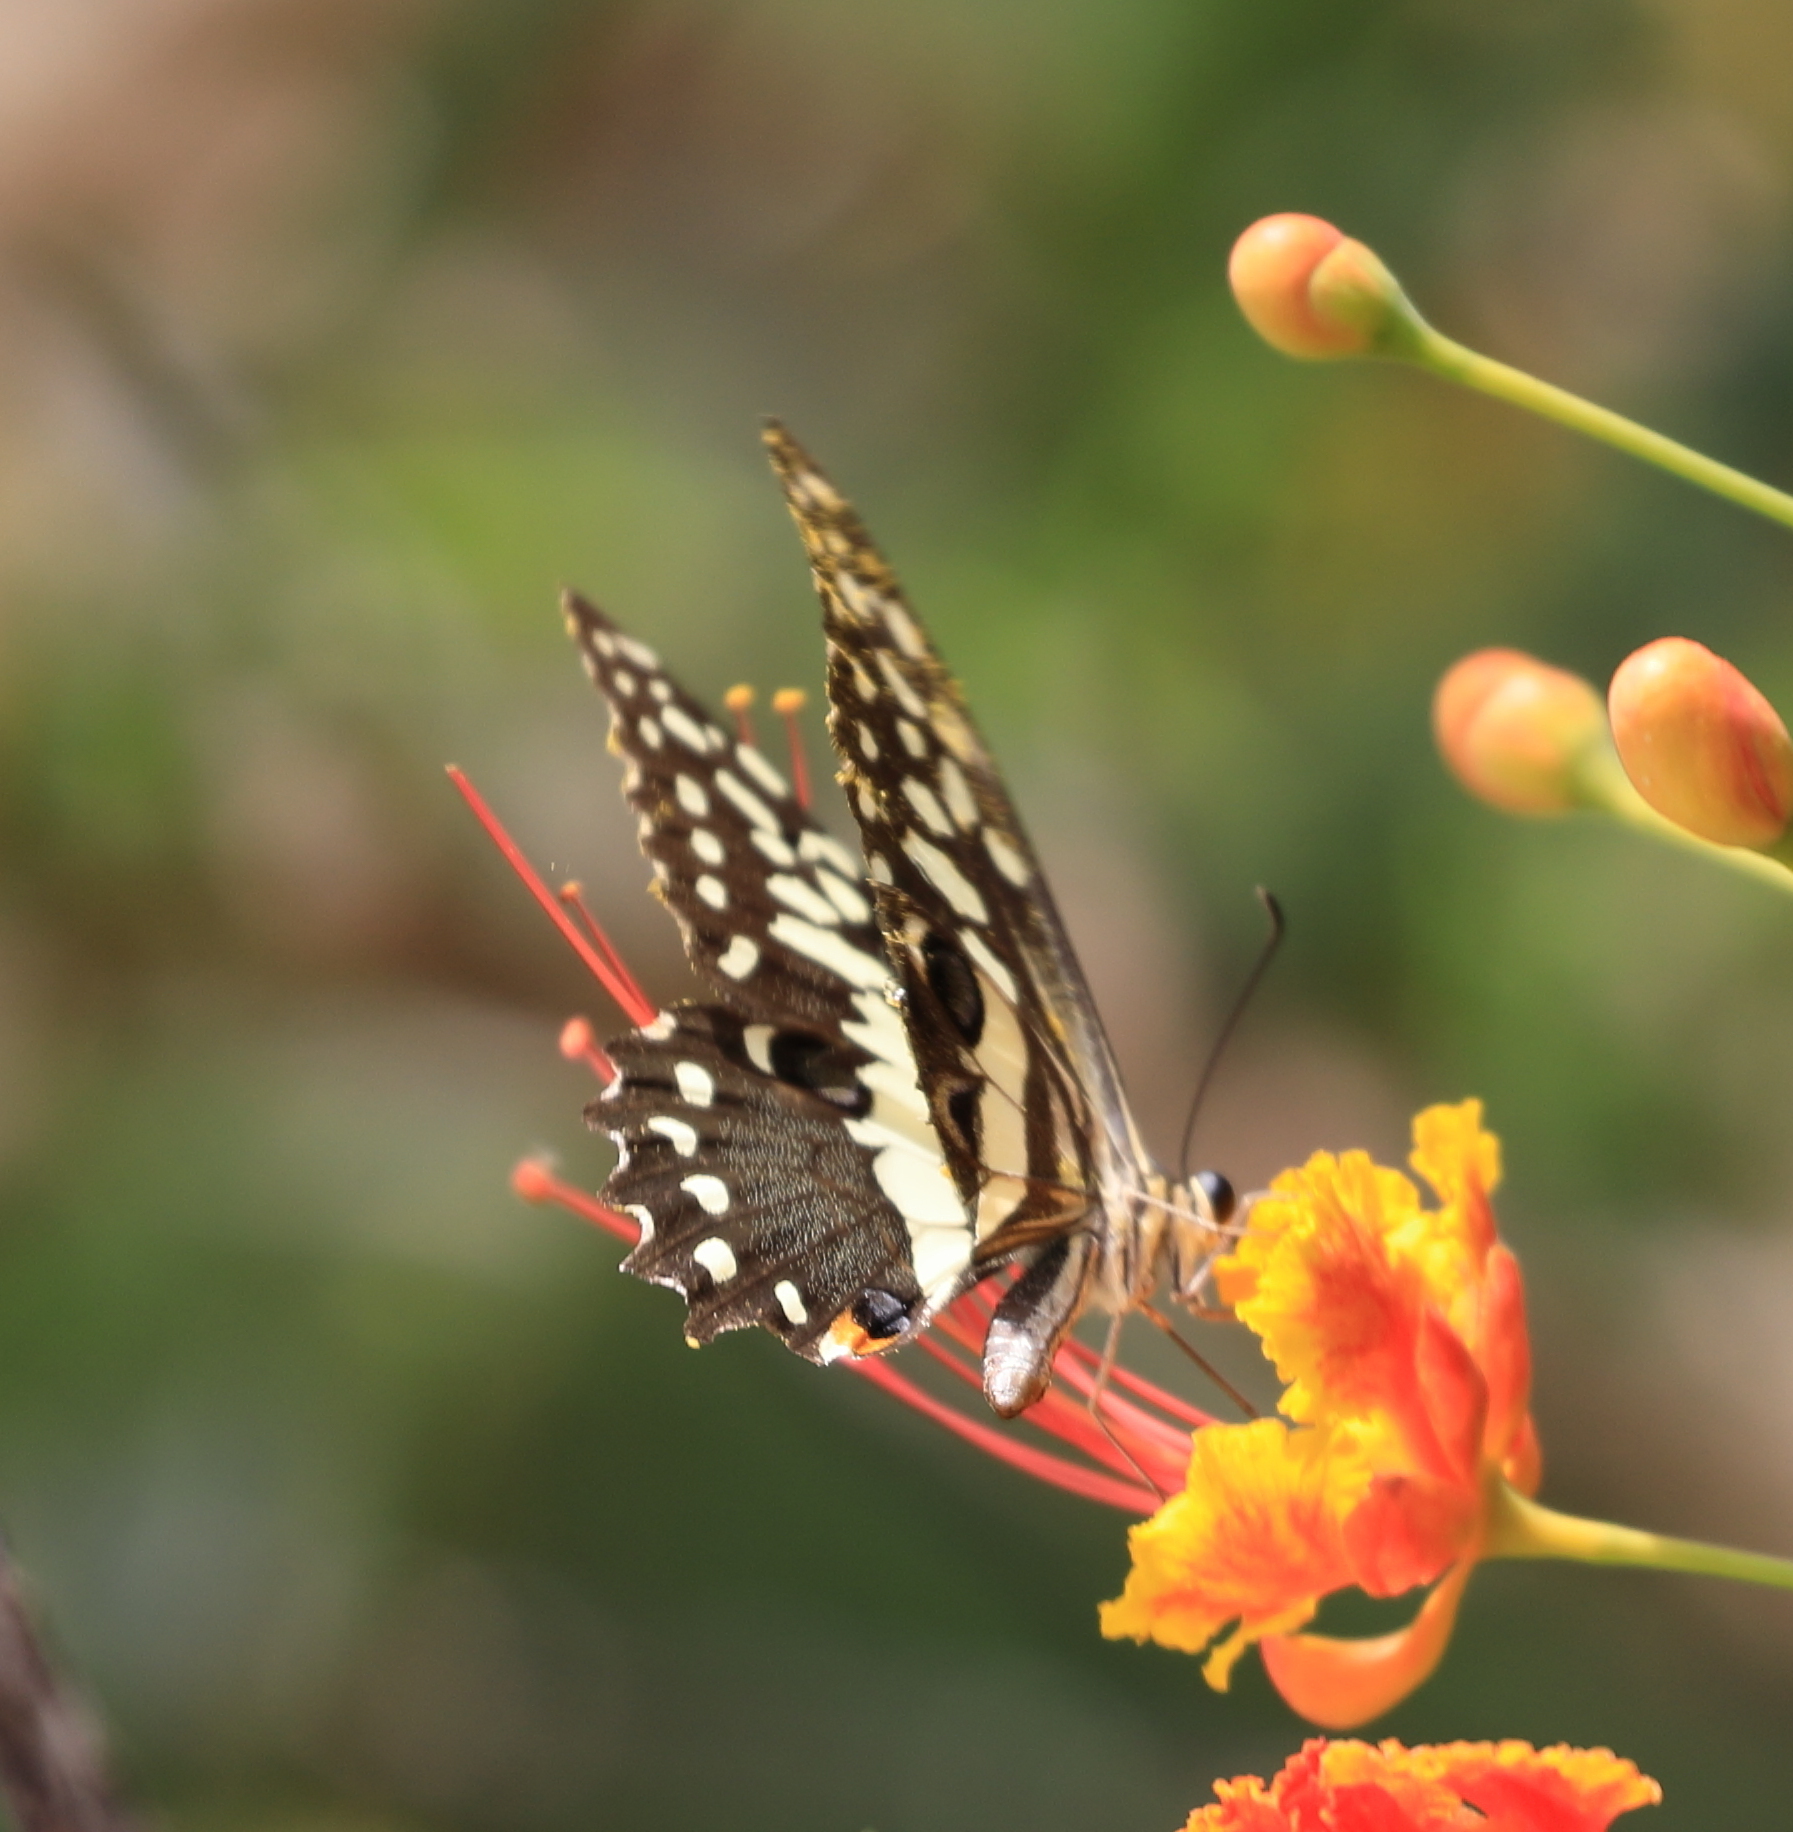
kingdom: Animalia
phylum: Arthropoda
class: Insecta
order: Lepidoptera
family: Papilionidae
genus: Papilio
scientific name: Papilio demodocus
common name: Christmas butterfly
